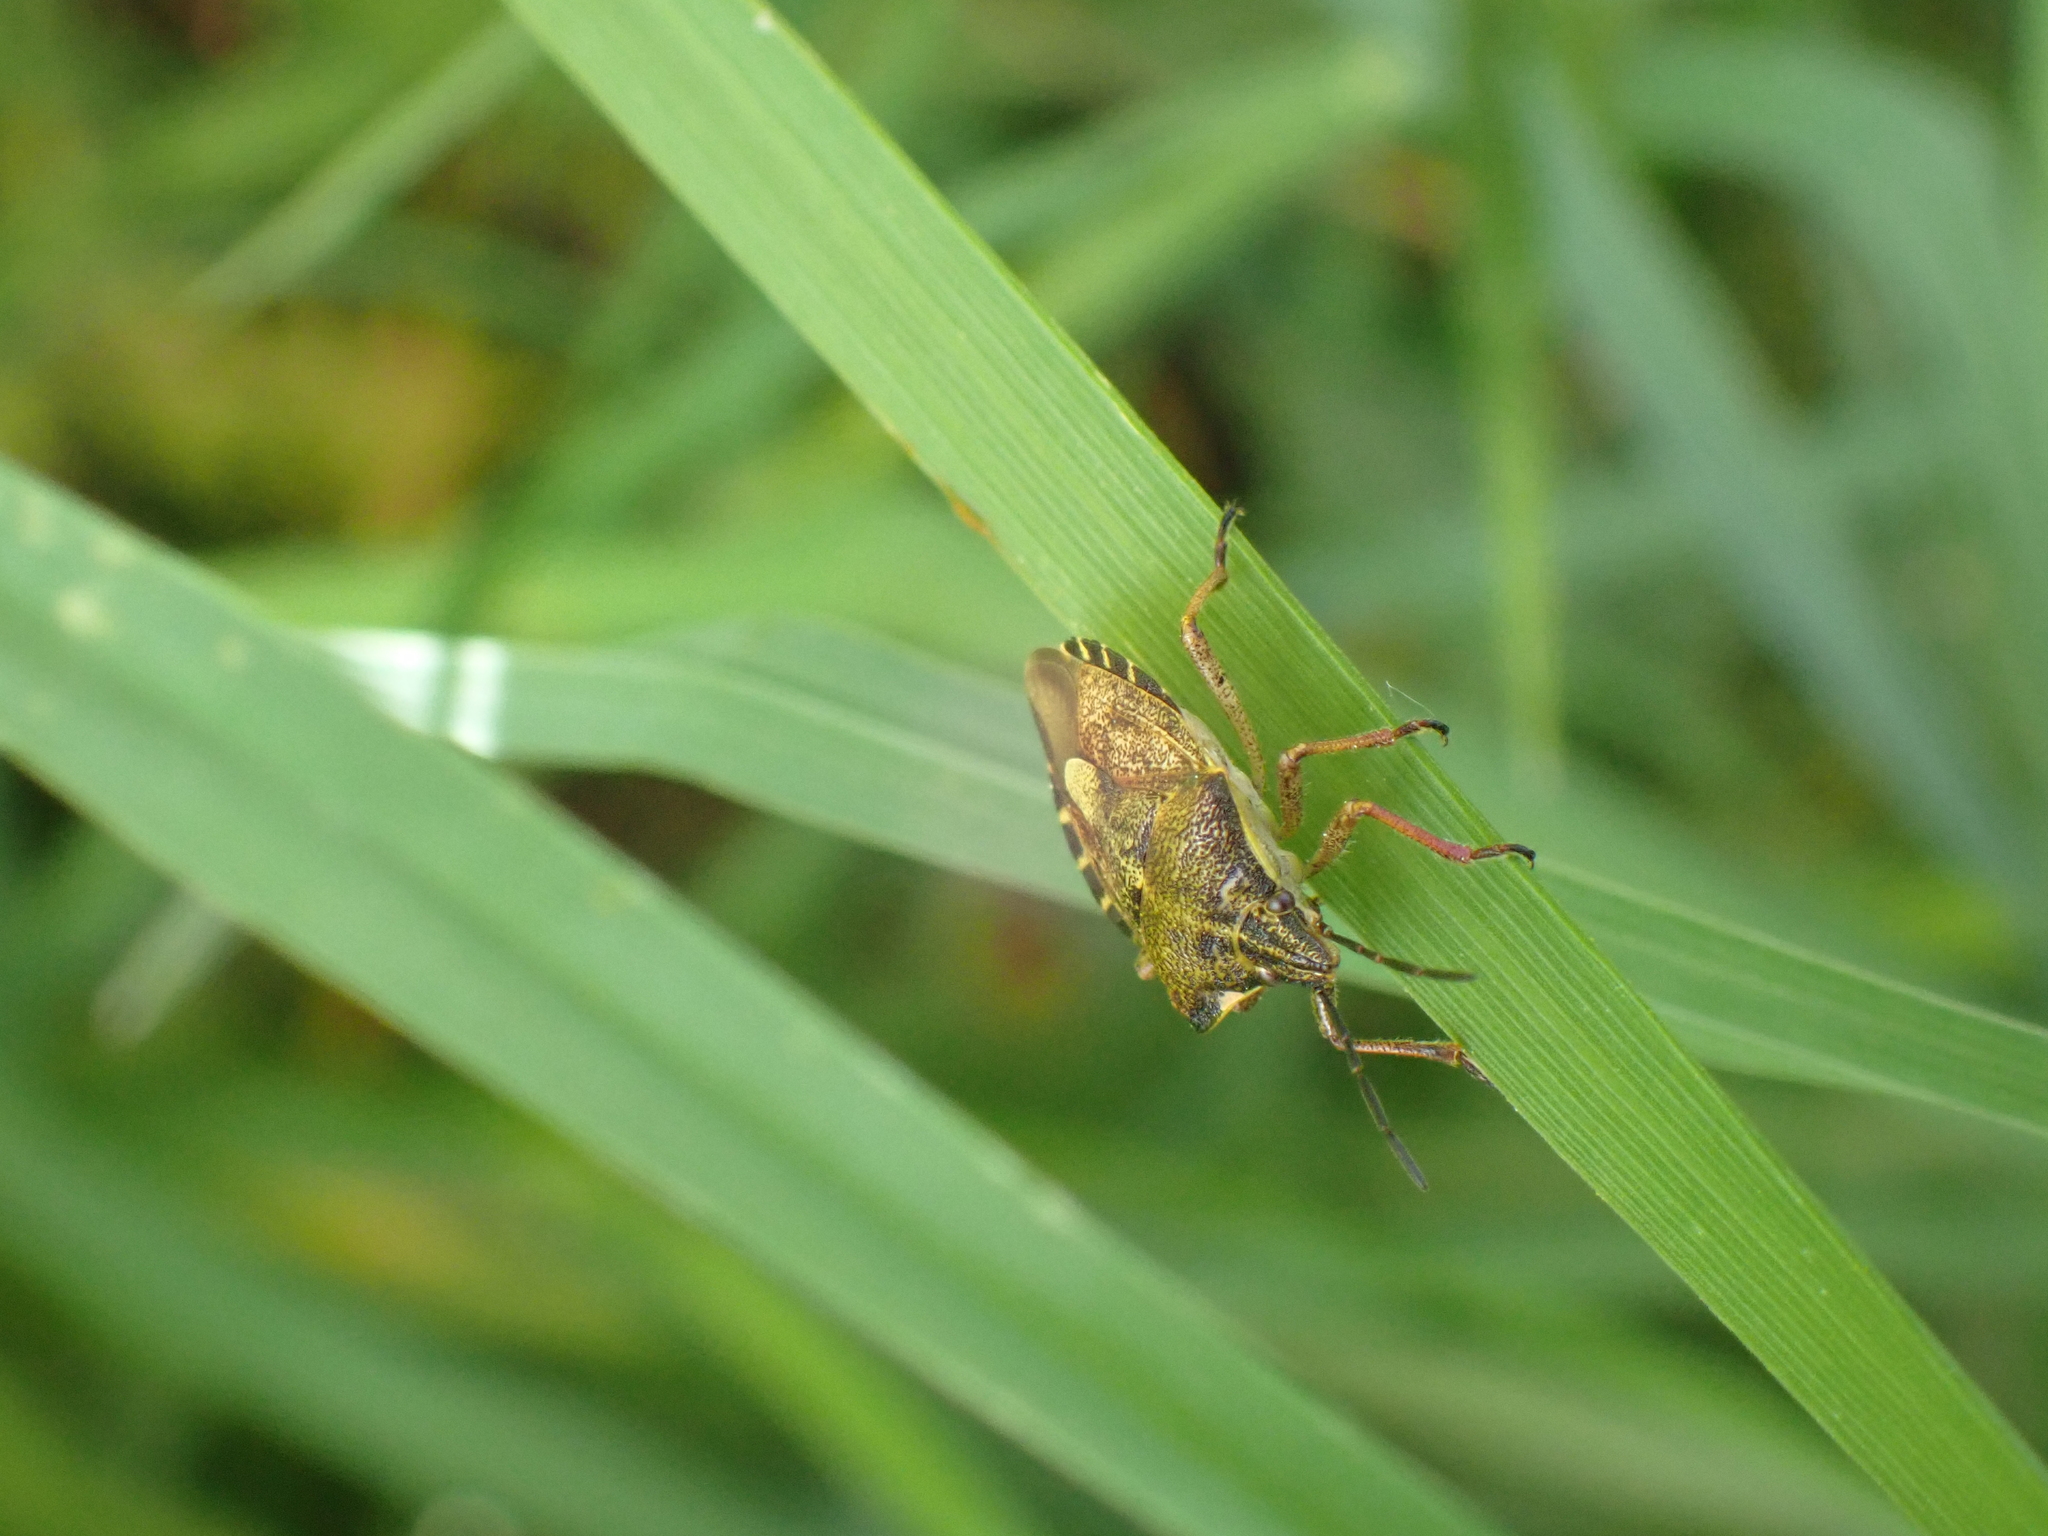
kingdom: Animalia
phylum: Arthropoda
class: Insecta
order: Hemiptera
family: Pentatomidae
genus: Carpocoris
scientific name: Carpocoris purpureipennis
